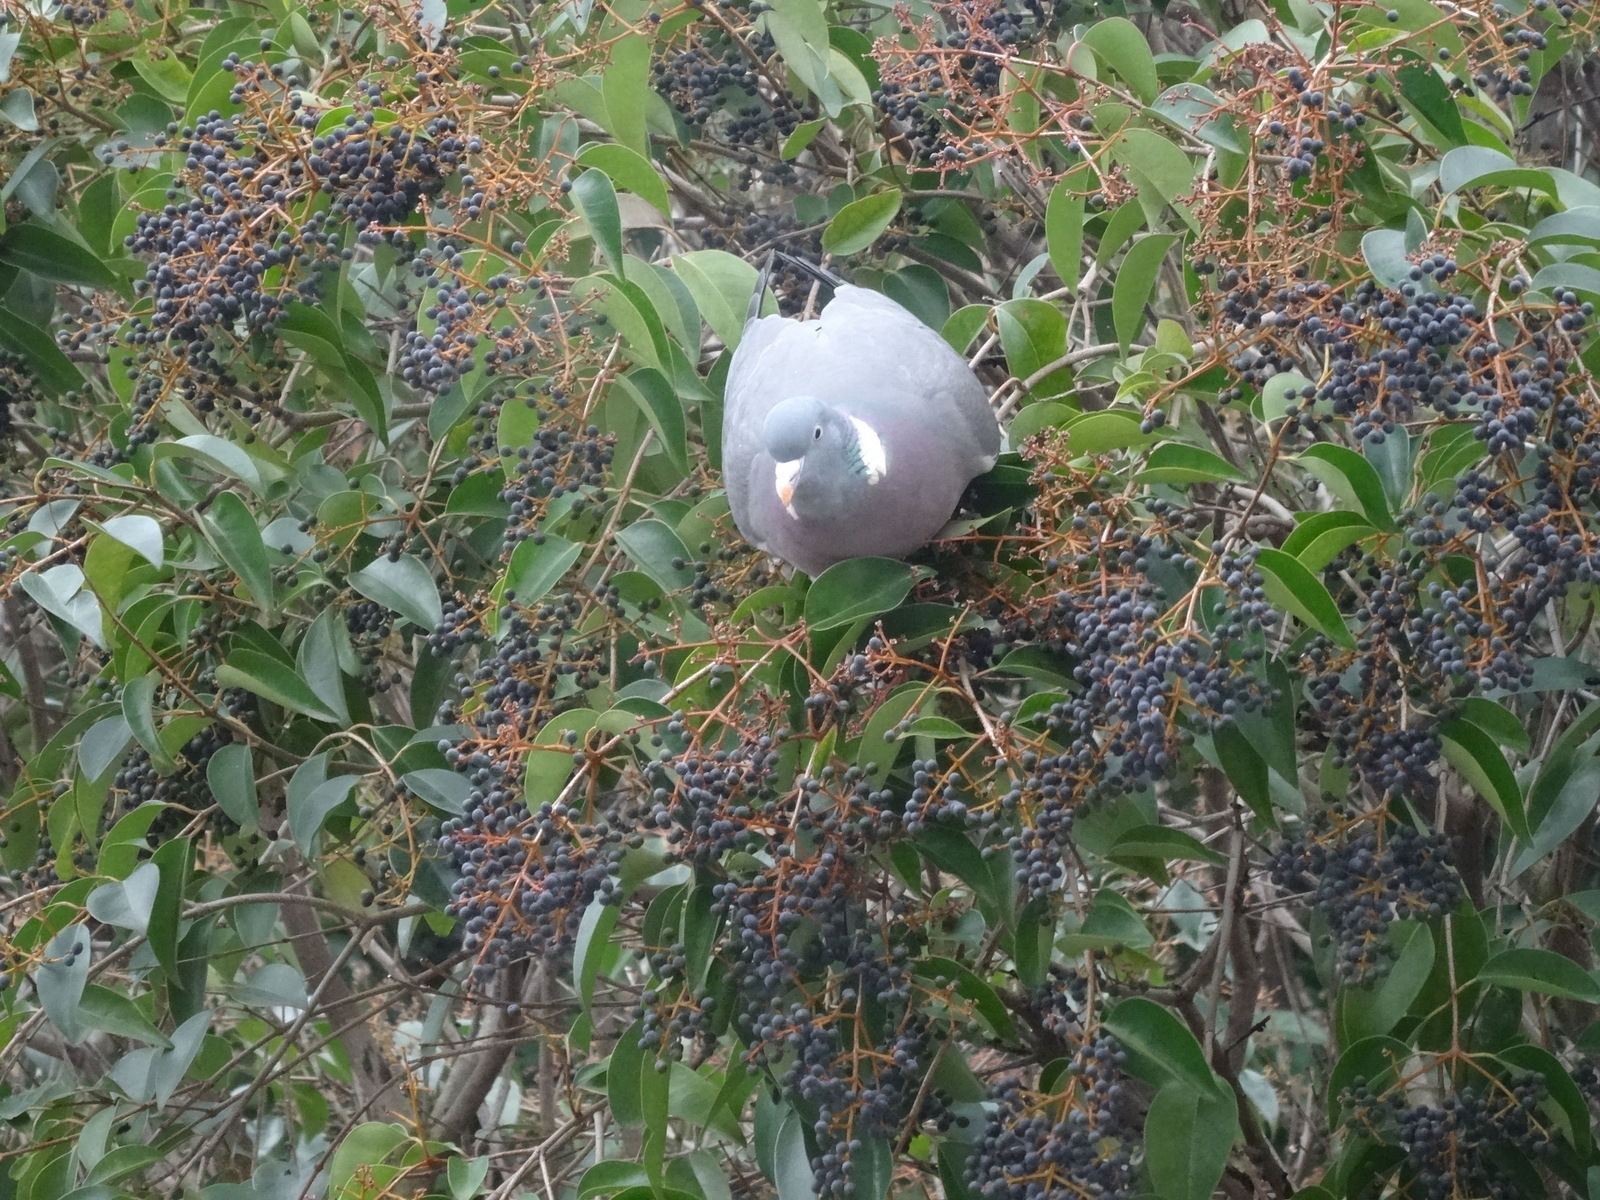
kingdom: Animalia
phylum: Chordata
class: Aves
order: Columbiformes
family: Columbidae
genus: Columba
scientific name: Columba palumbus
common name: Common wood pigeon
